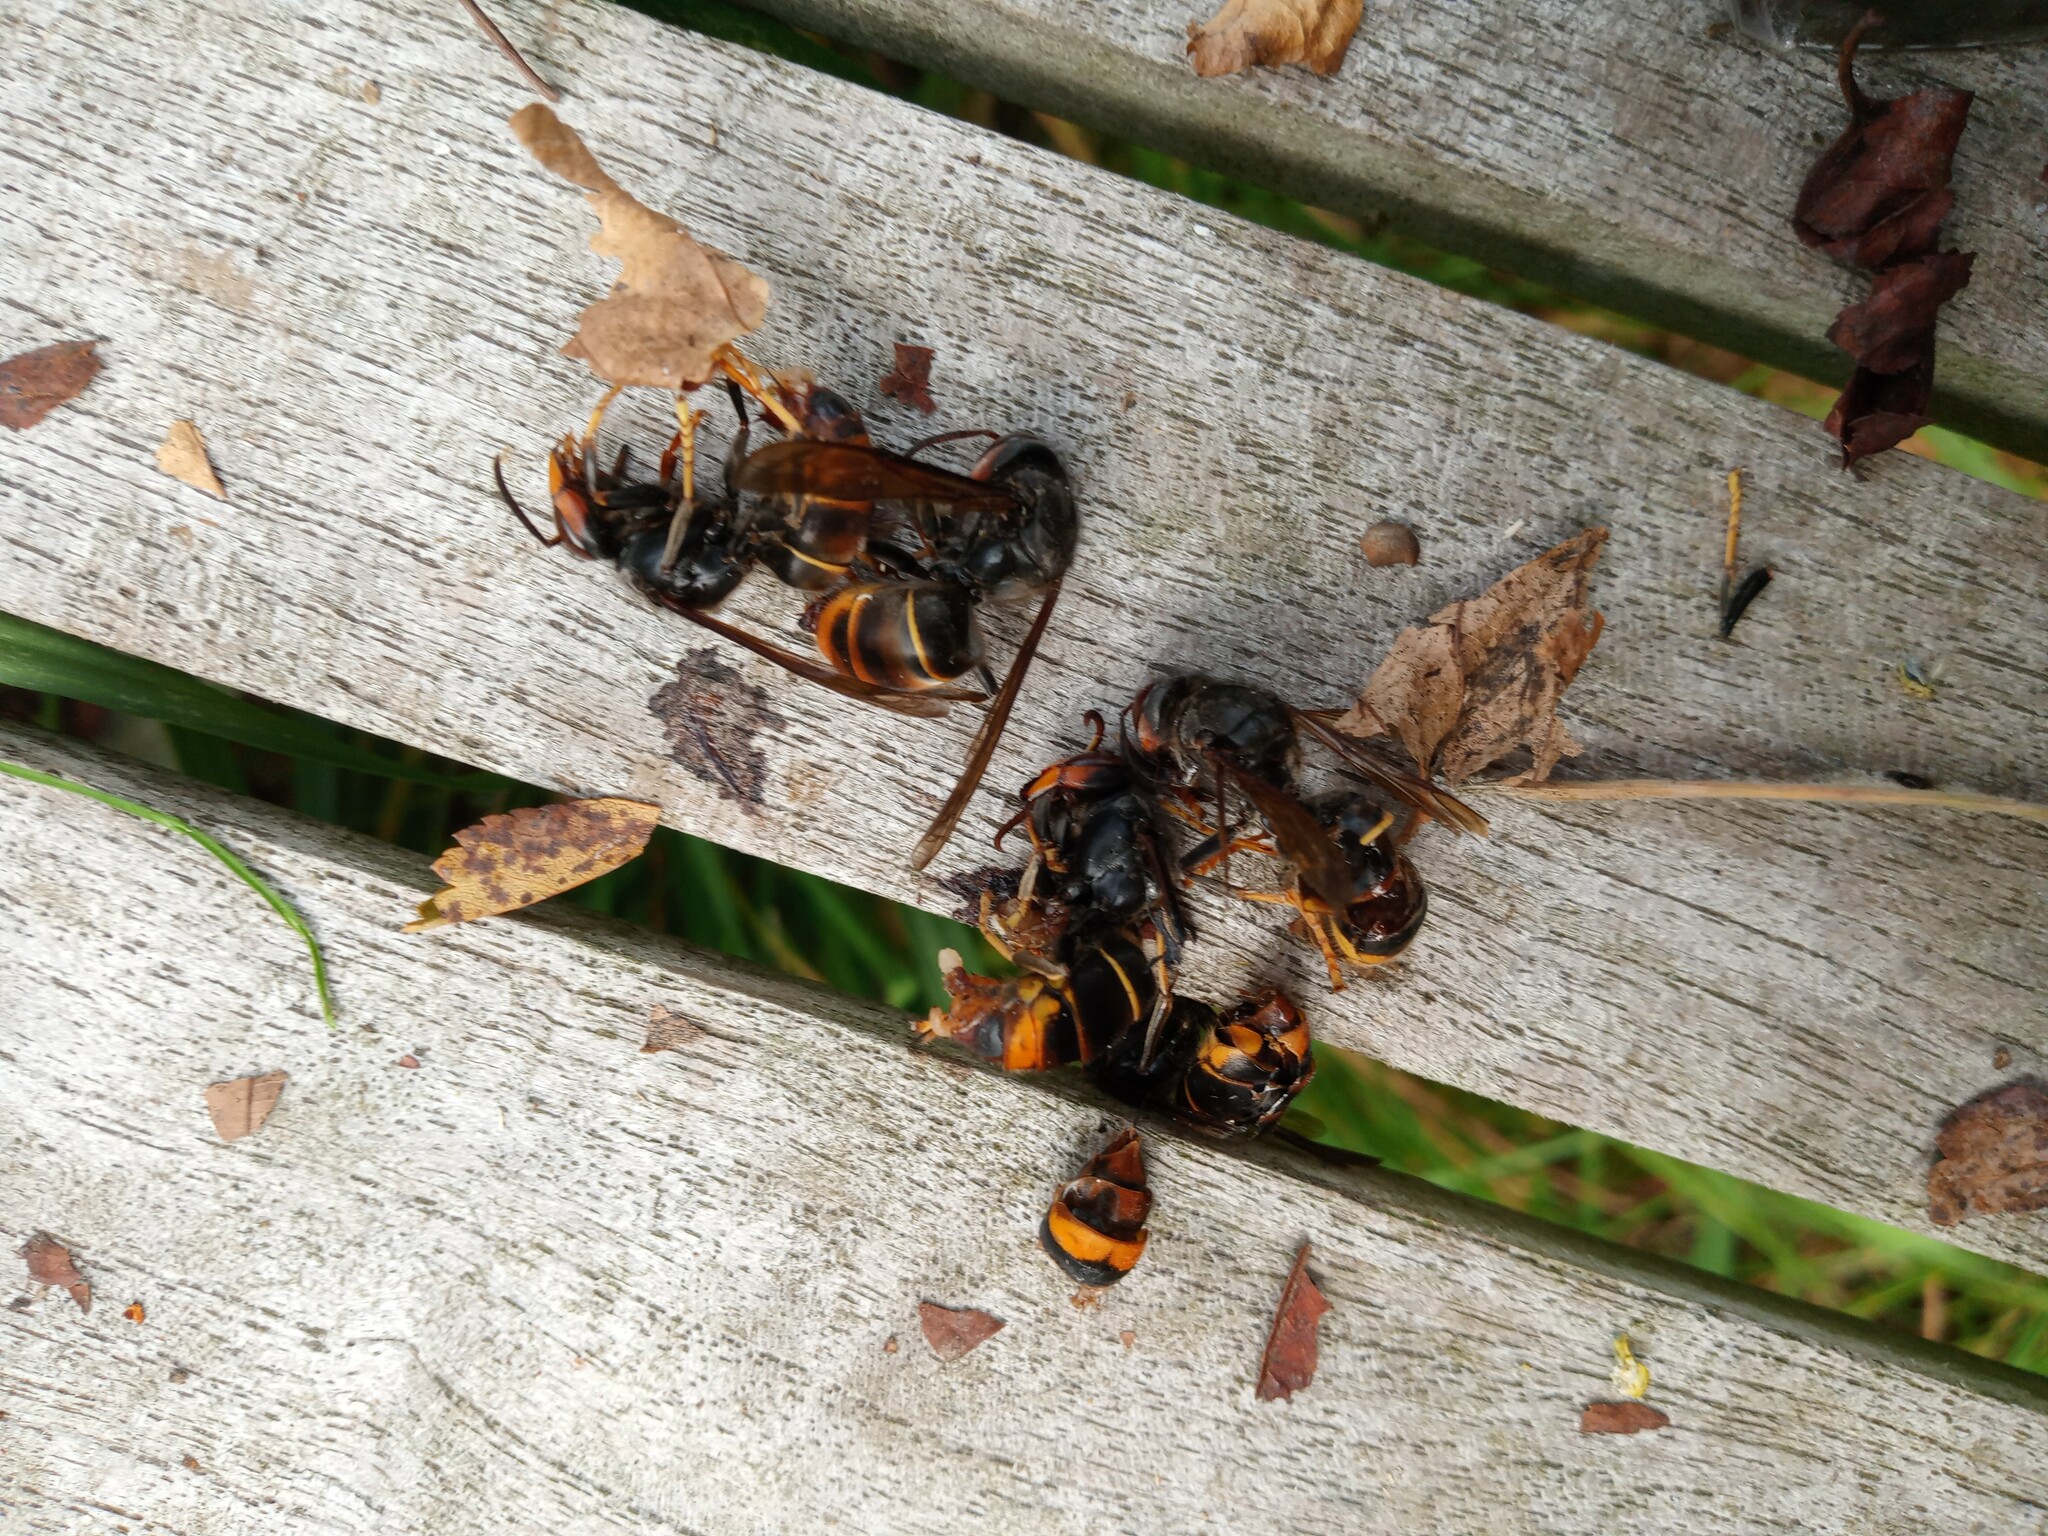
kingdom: Animalia
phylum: Arthropoda
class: Insecta
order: Hymenoptera
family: Vespidae
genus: Vespa
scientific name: Vespa velutina
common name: Asian hornet
